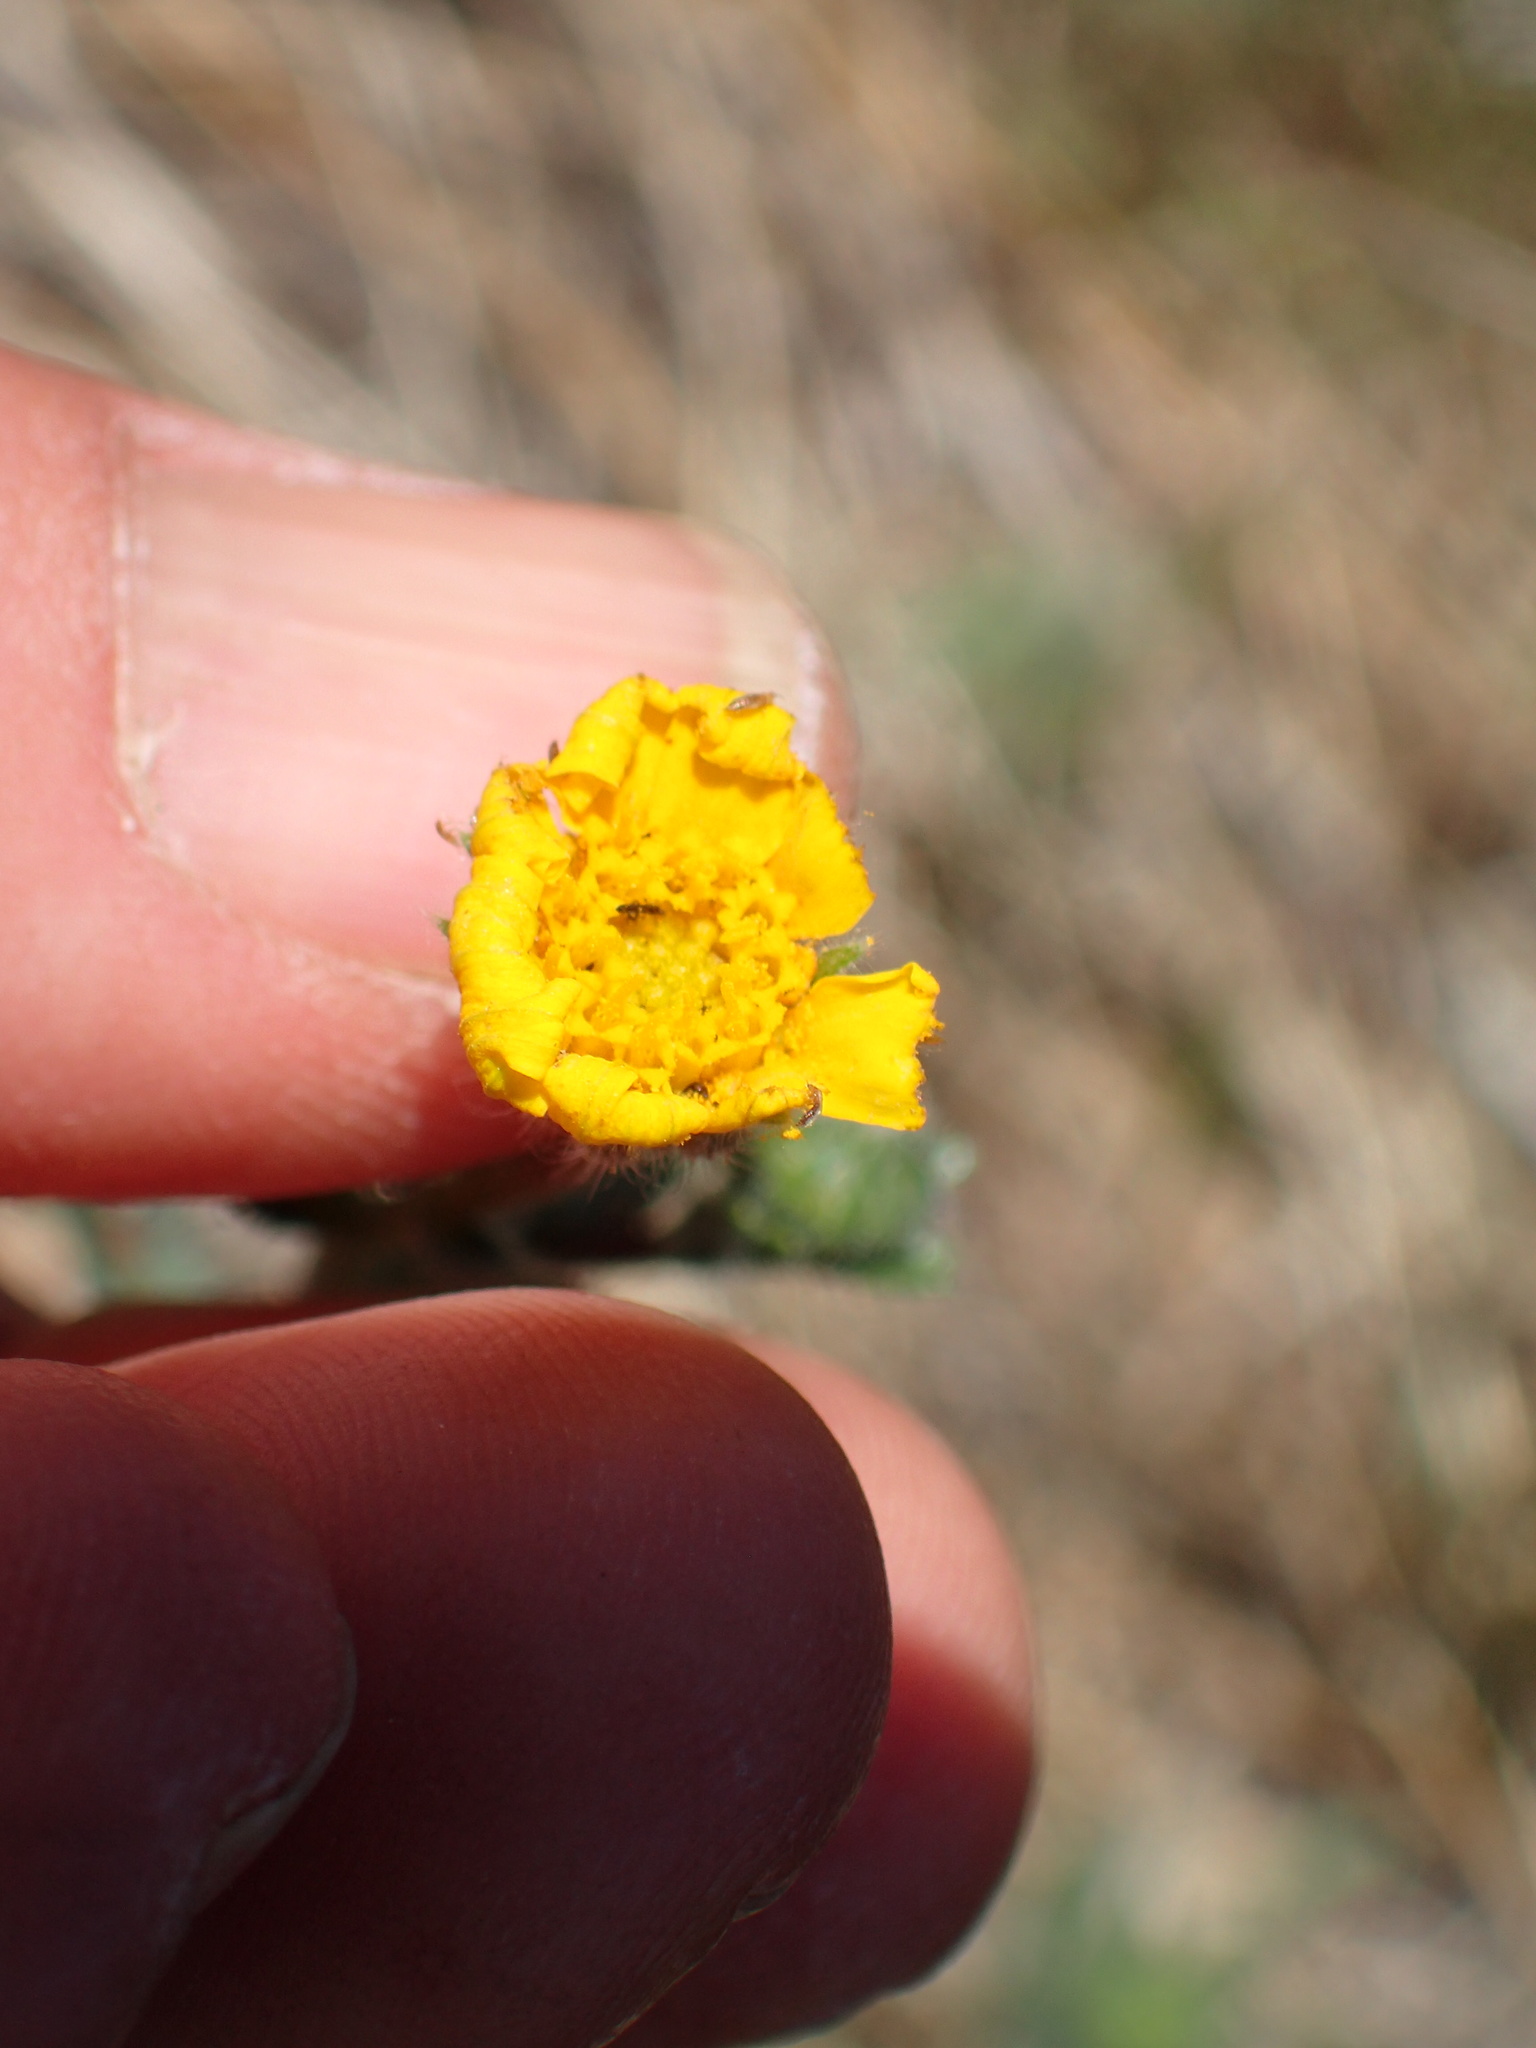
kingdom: Plantae
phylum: Tracheophyta
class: Magnoliopsida
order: Asterales
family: Asteraceae
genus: Madia
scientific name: Madia elegans
